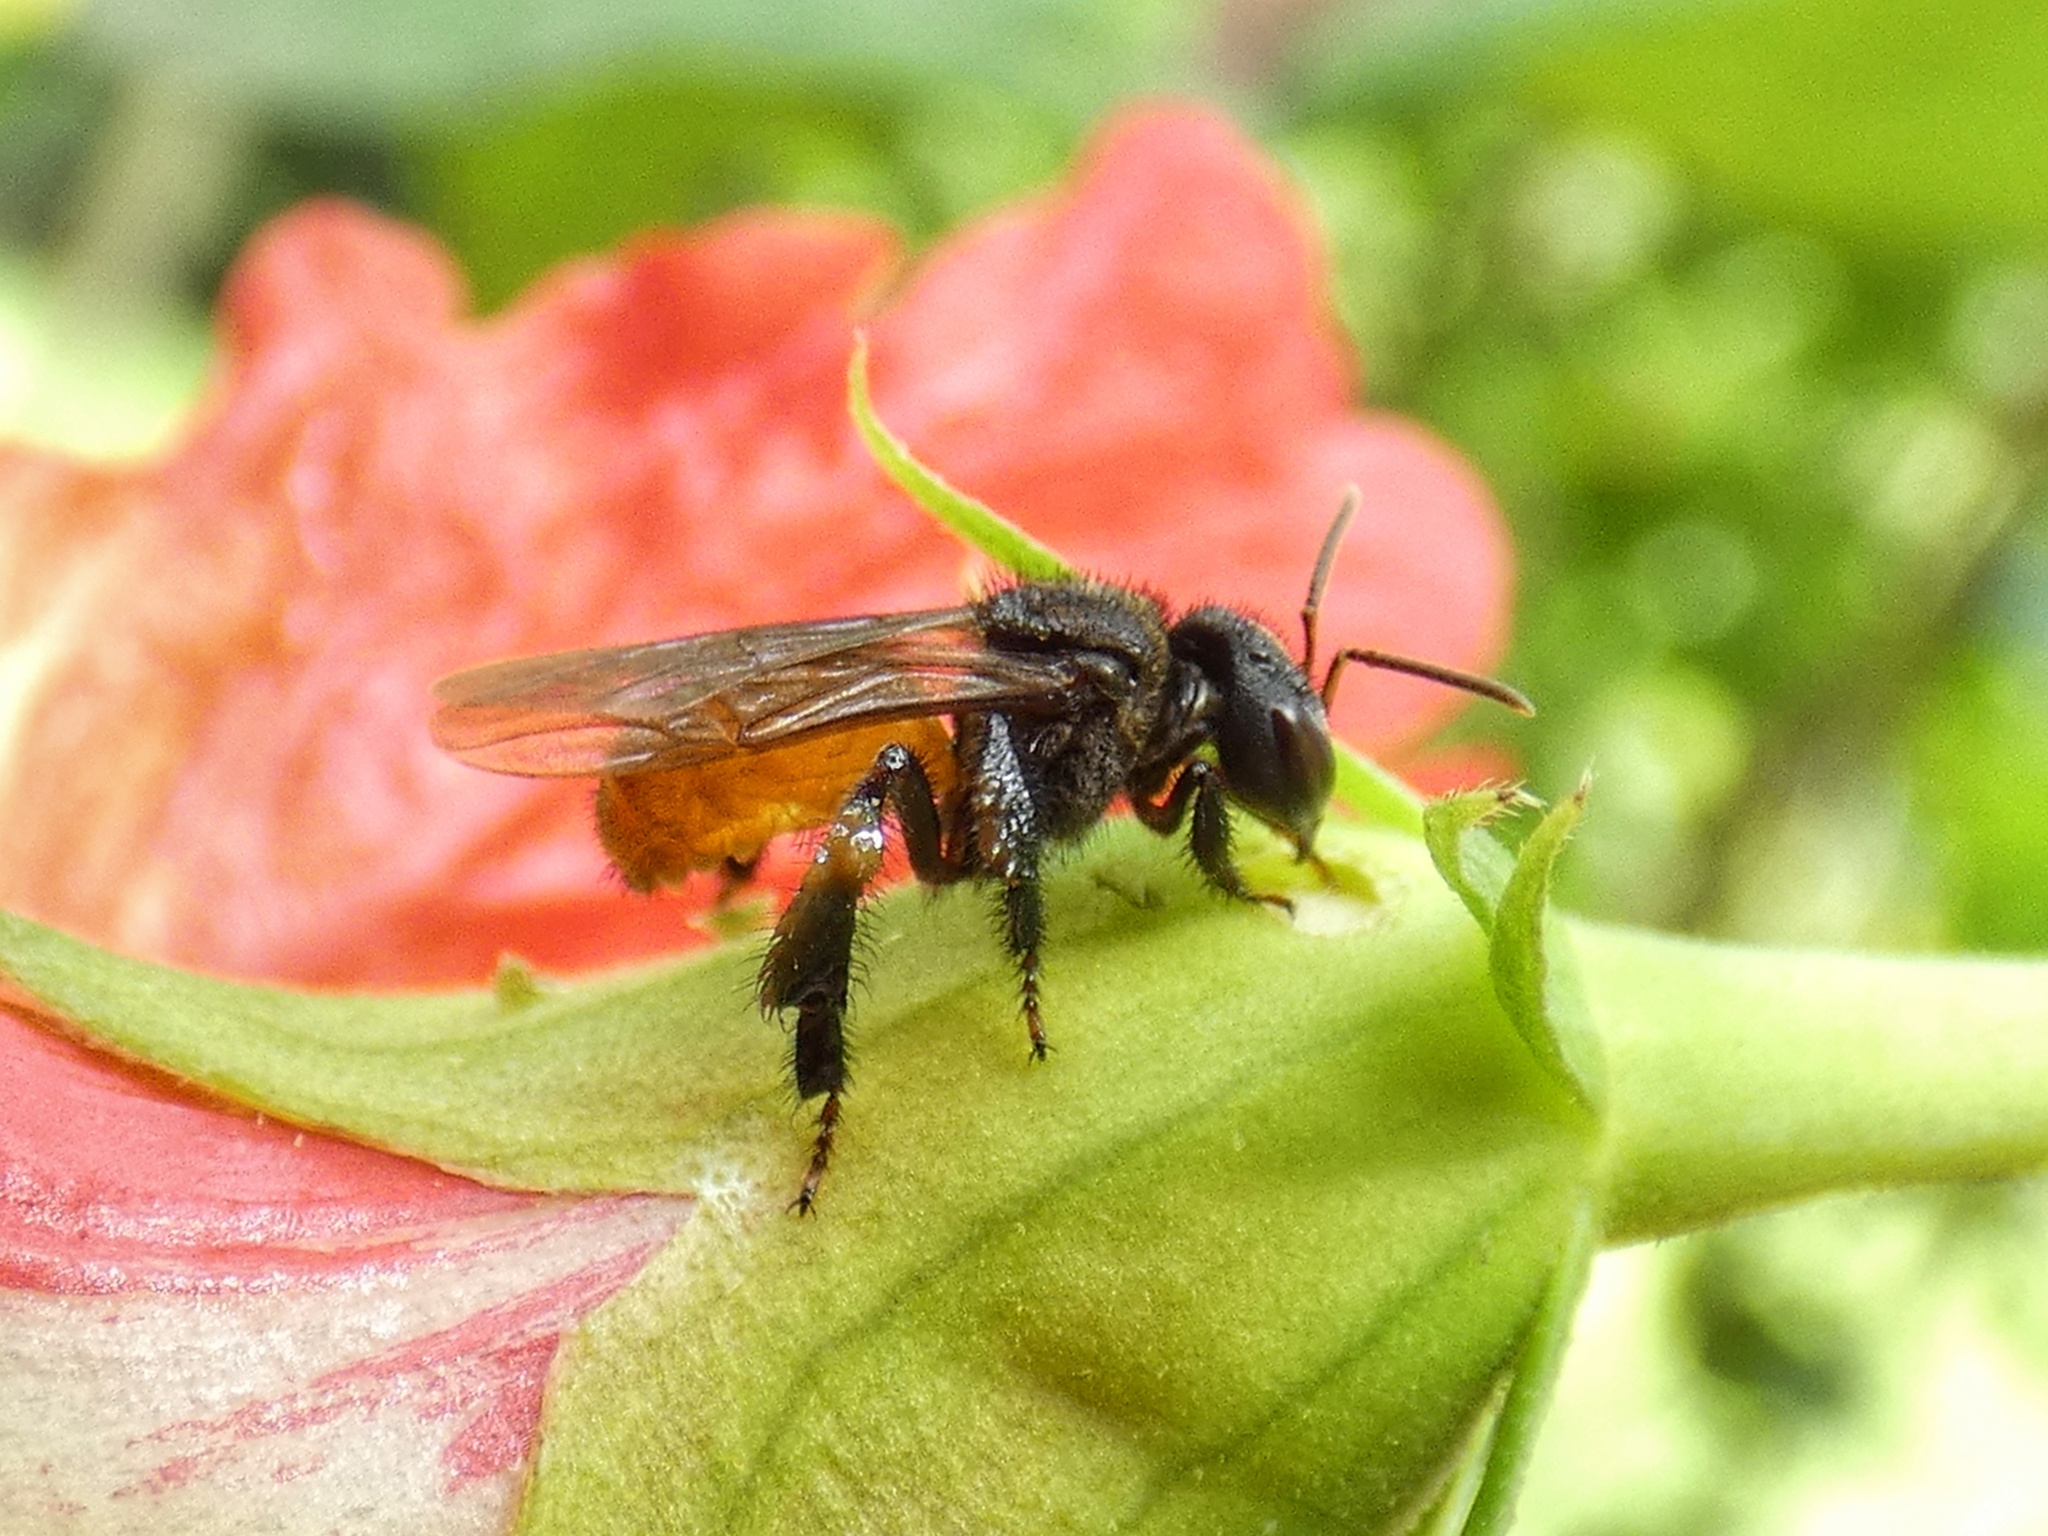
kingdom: Animalia
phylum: Arthropoda
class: Insecta
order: Hymenoptera
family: Apidae
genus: Trigona
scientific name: Trigona fulviventris
